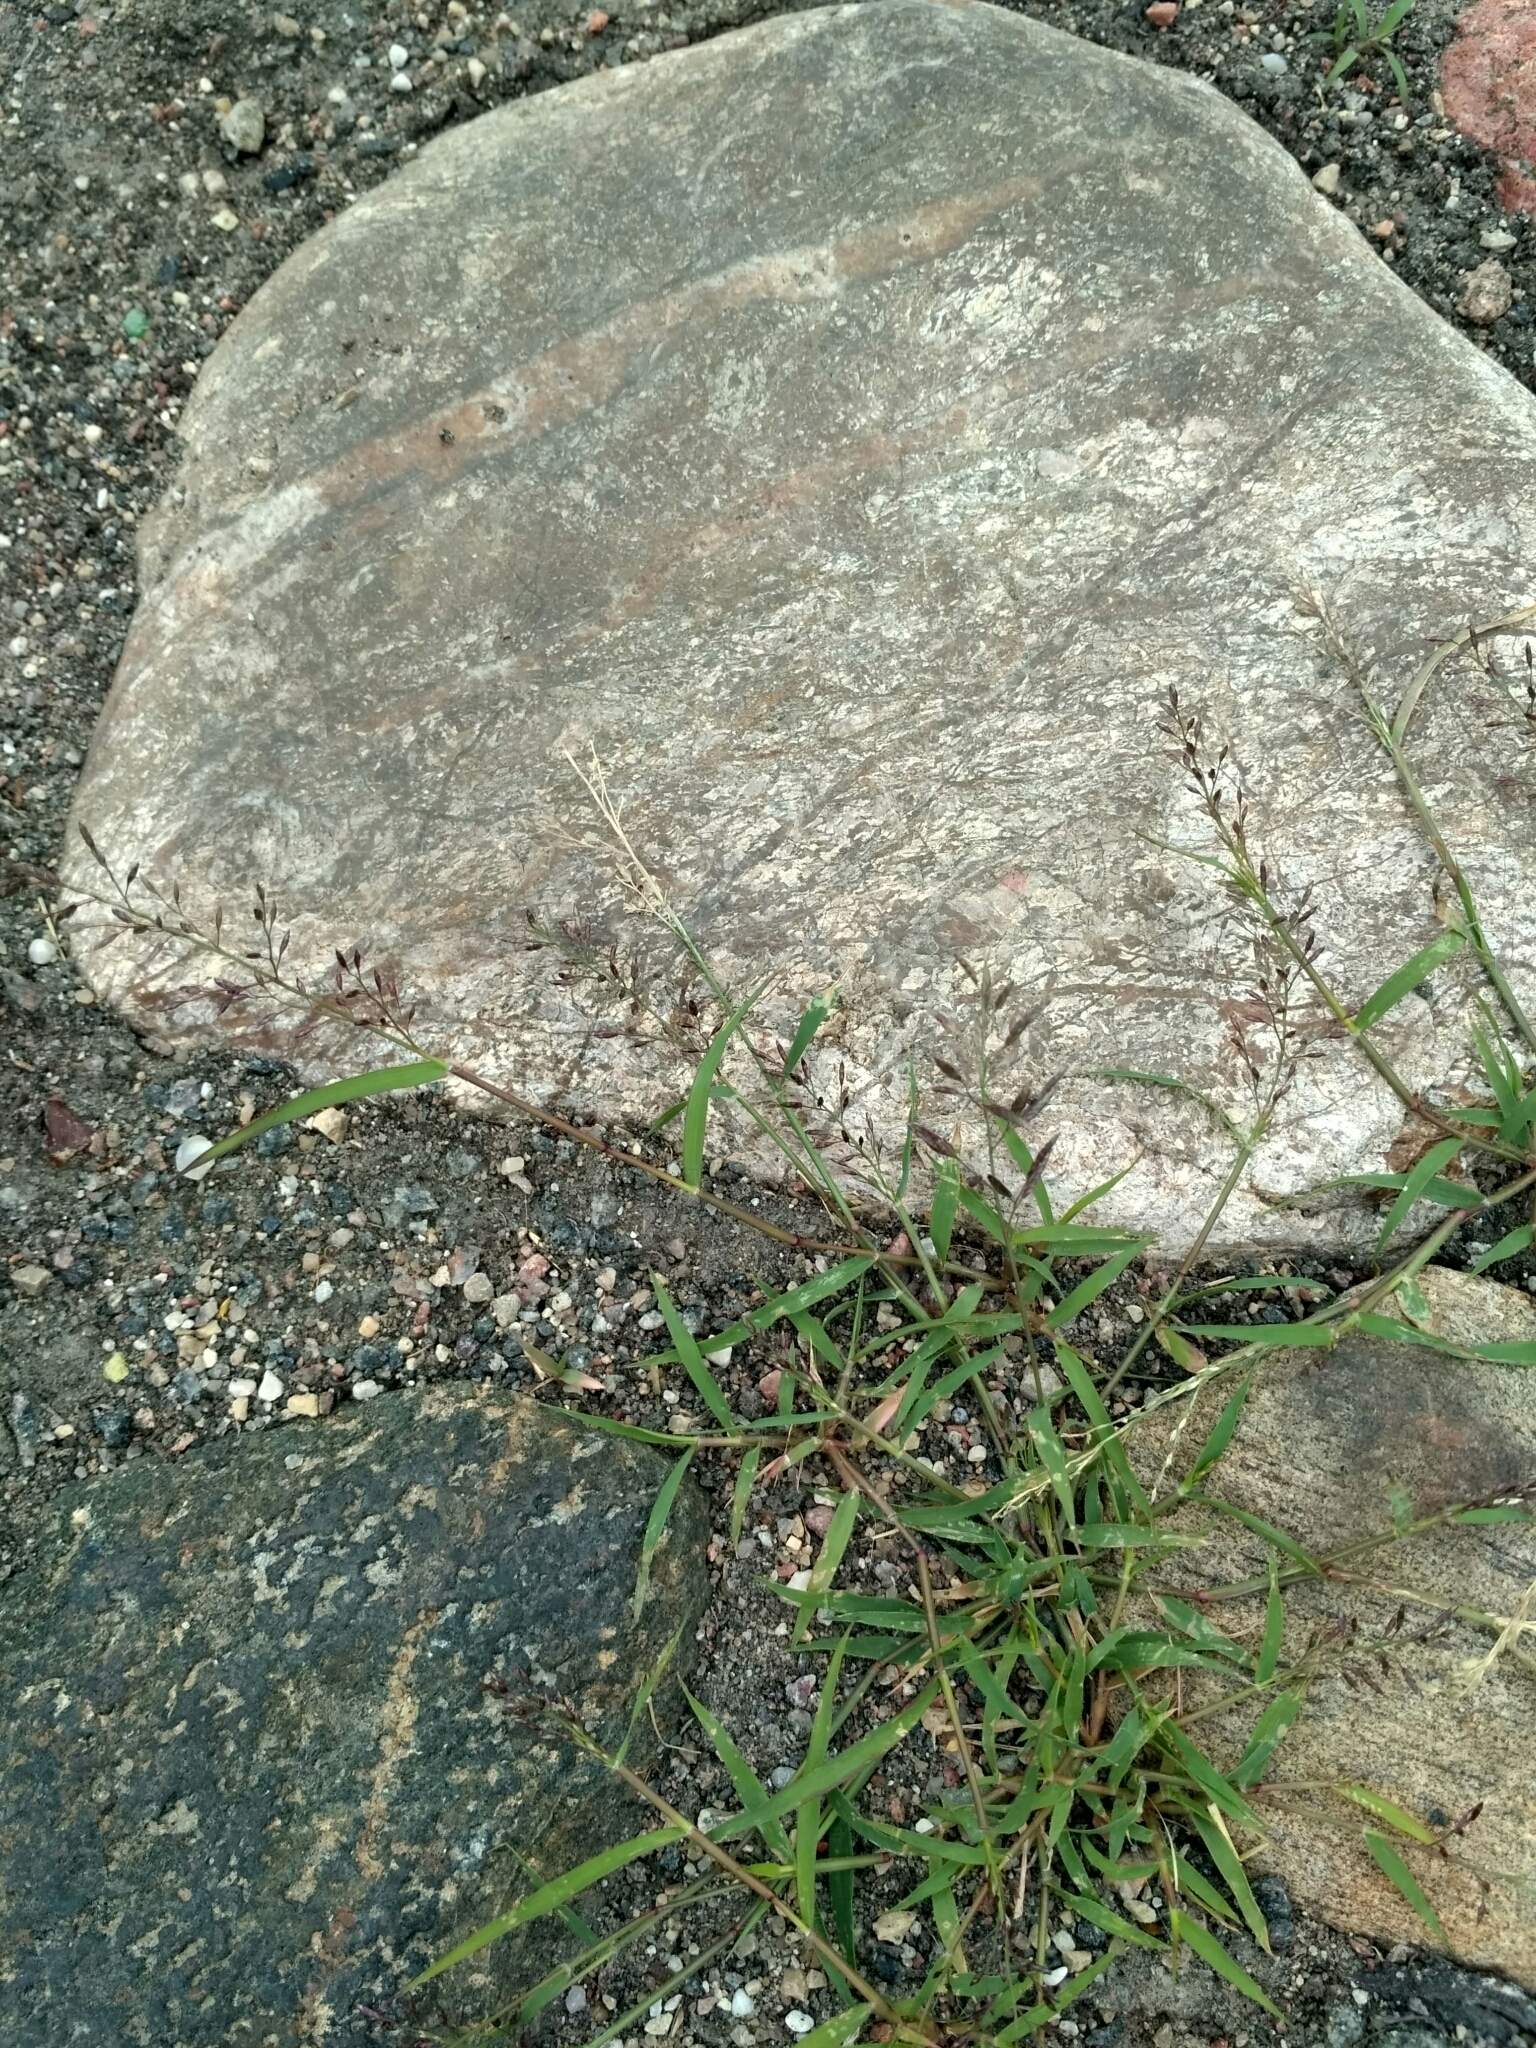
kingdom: Plantae
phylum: Tracheophyta
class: Liliopsida
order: Poales
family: Poaceae
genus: Eragrostis
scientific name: Eragrostis minor
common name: Small love-grass
